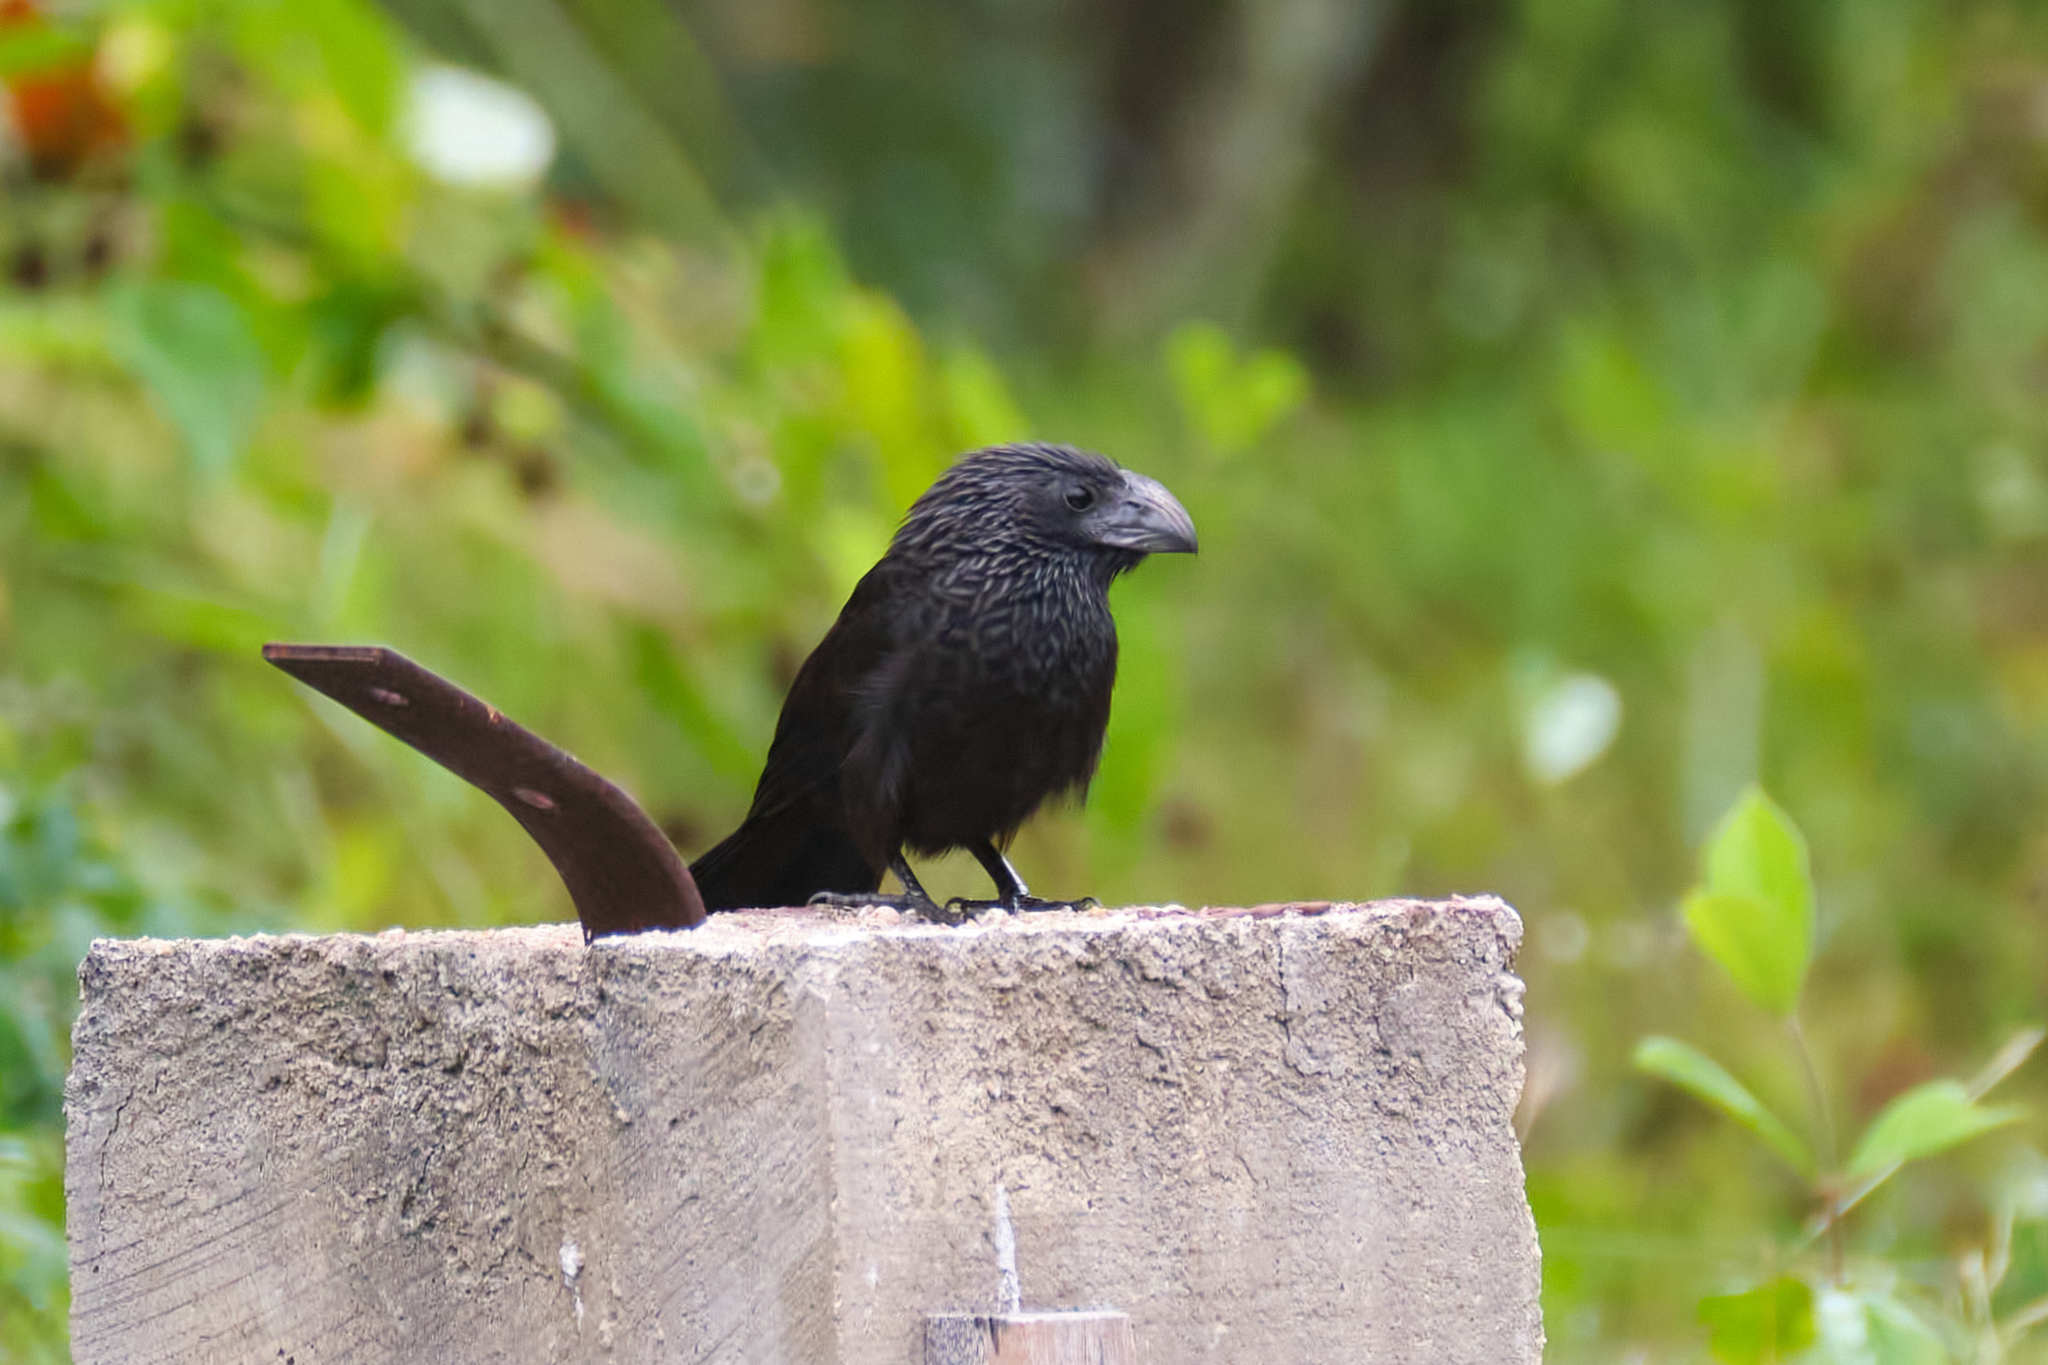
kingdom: Animalia
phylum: Chordata
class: Aves
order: Cuculiformes
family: Cuculidae
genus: Crotophaga
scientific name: Crotophaga sulcirostris
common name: Groove-billed ani
